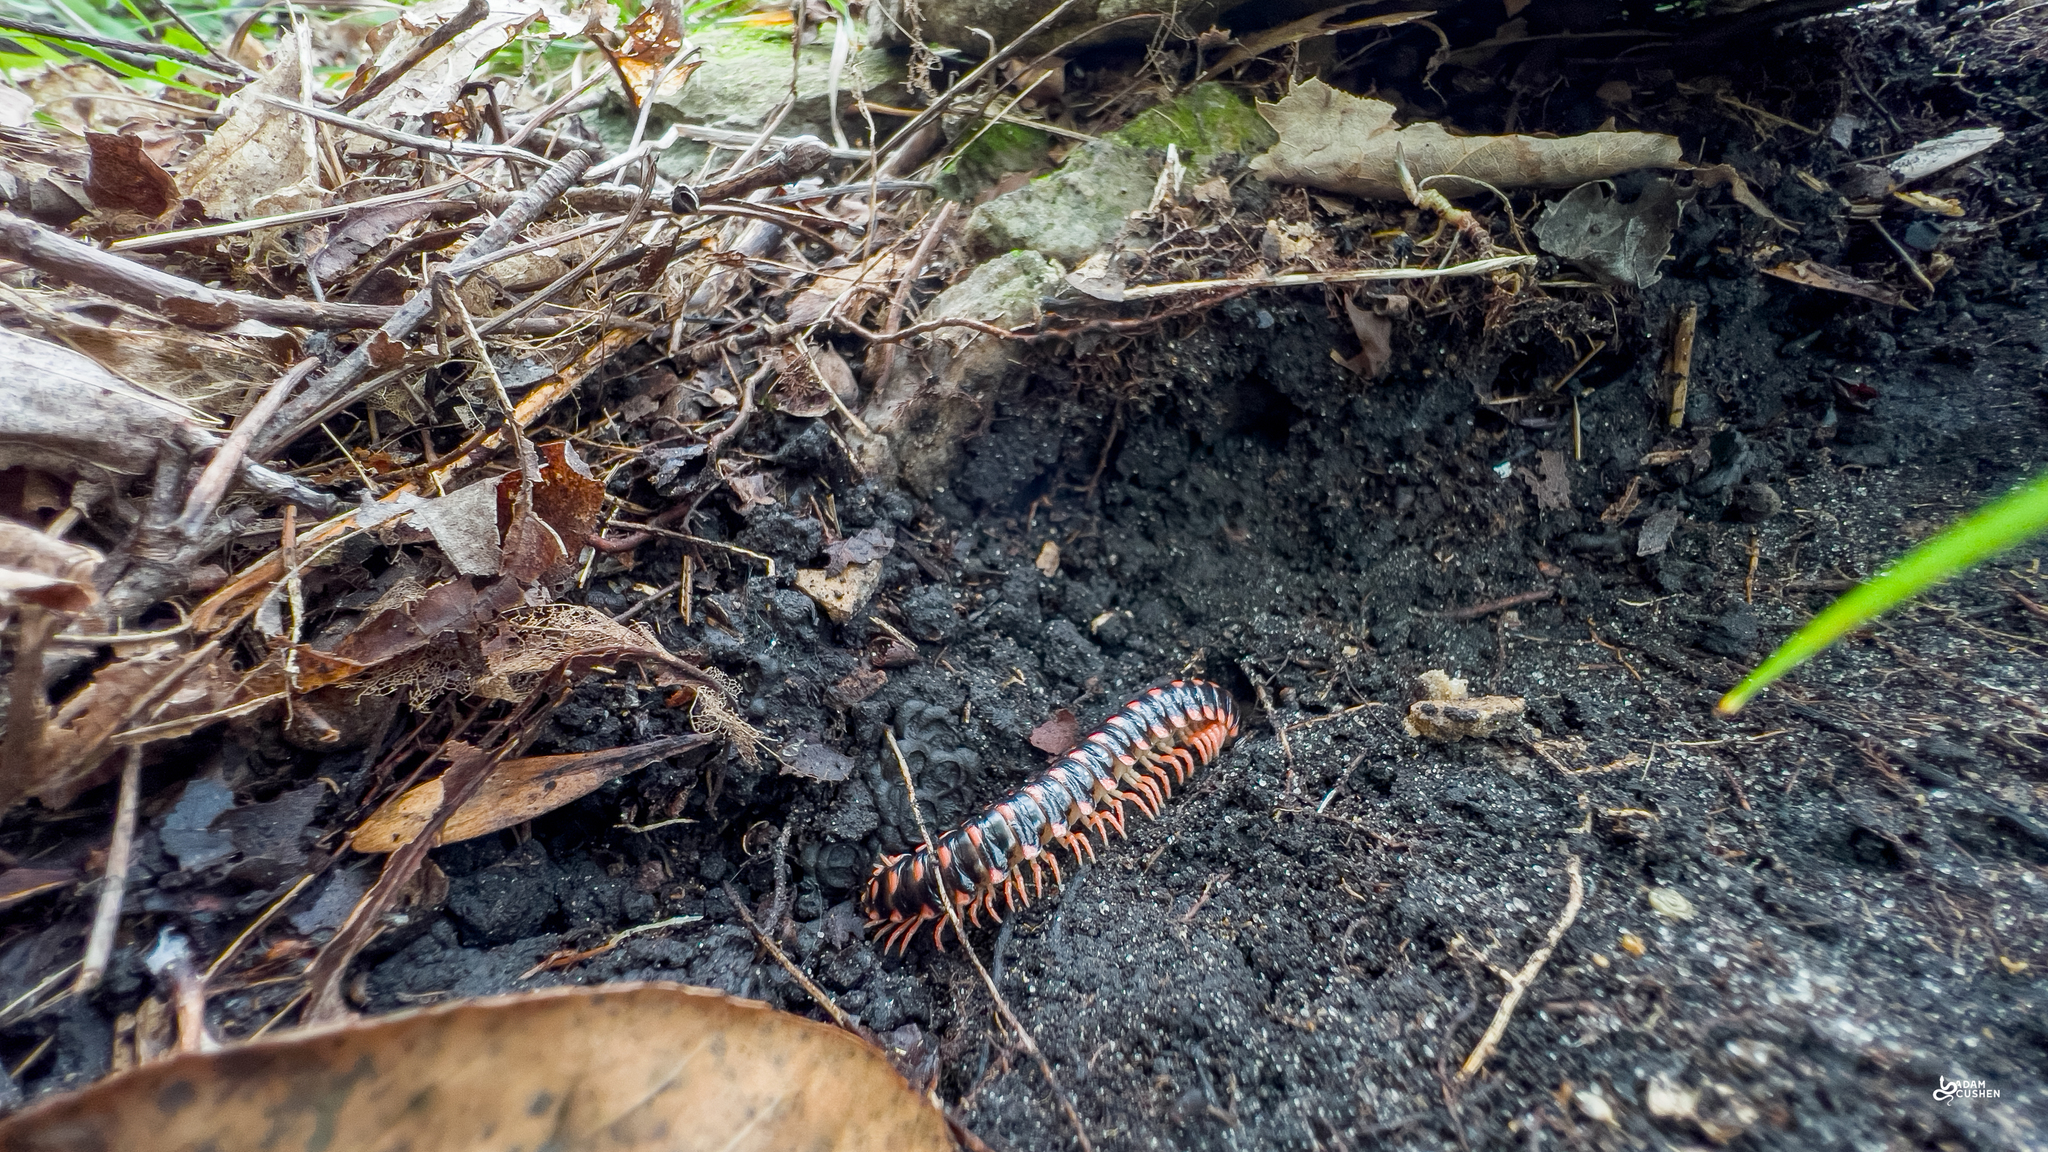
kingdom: Animalia
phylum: Arthropoda
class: Diplopoda
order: Polydesmida
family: Xystodesmidae
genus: Rudiloria
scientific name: Rudiloria trimaculata
